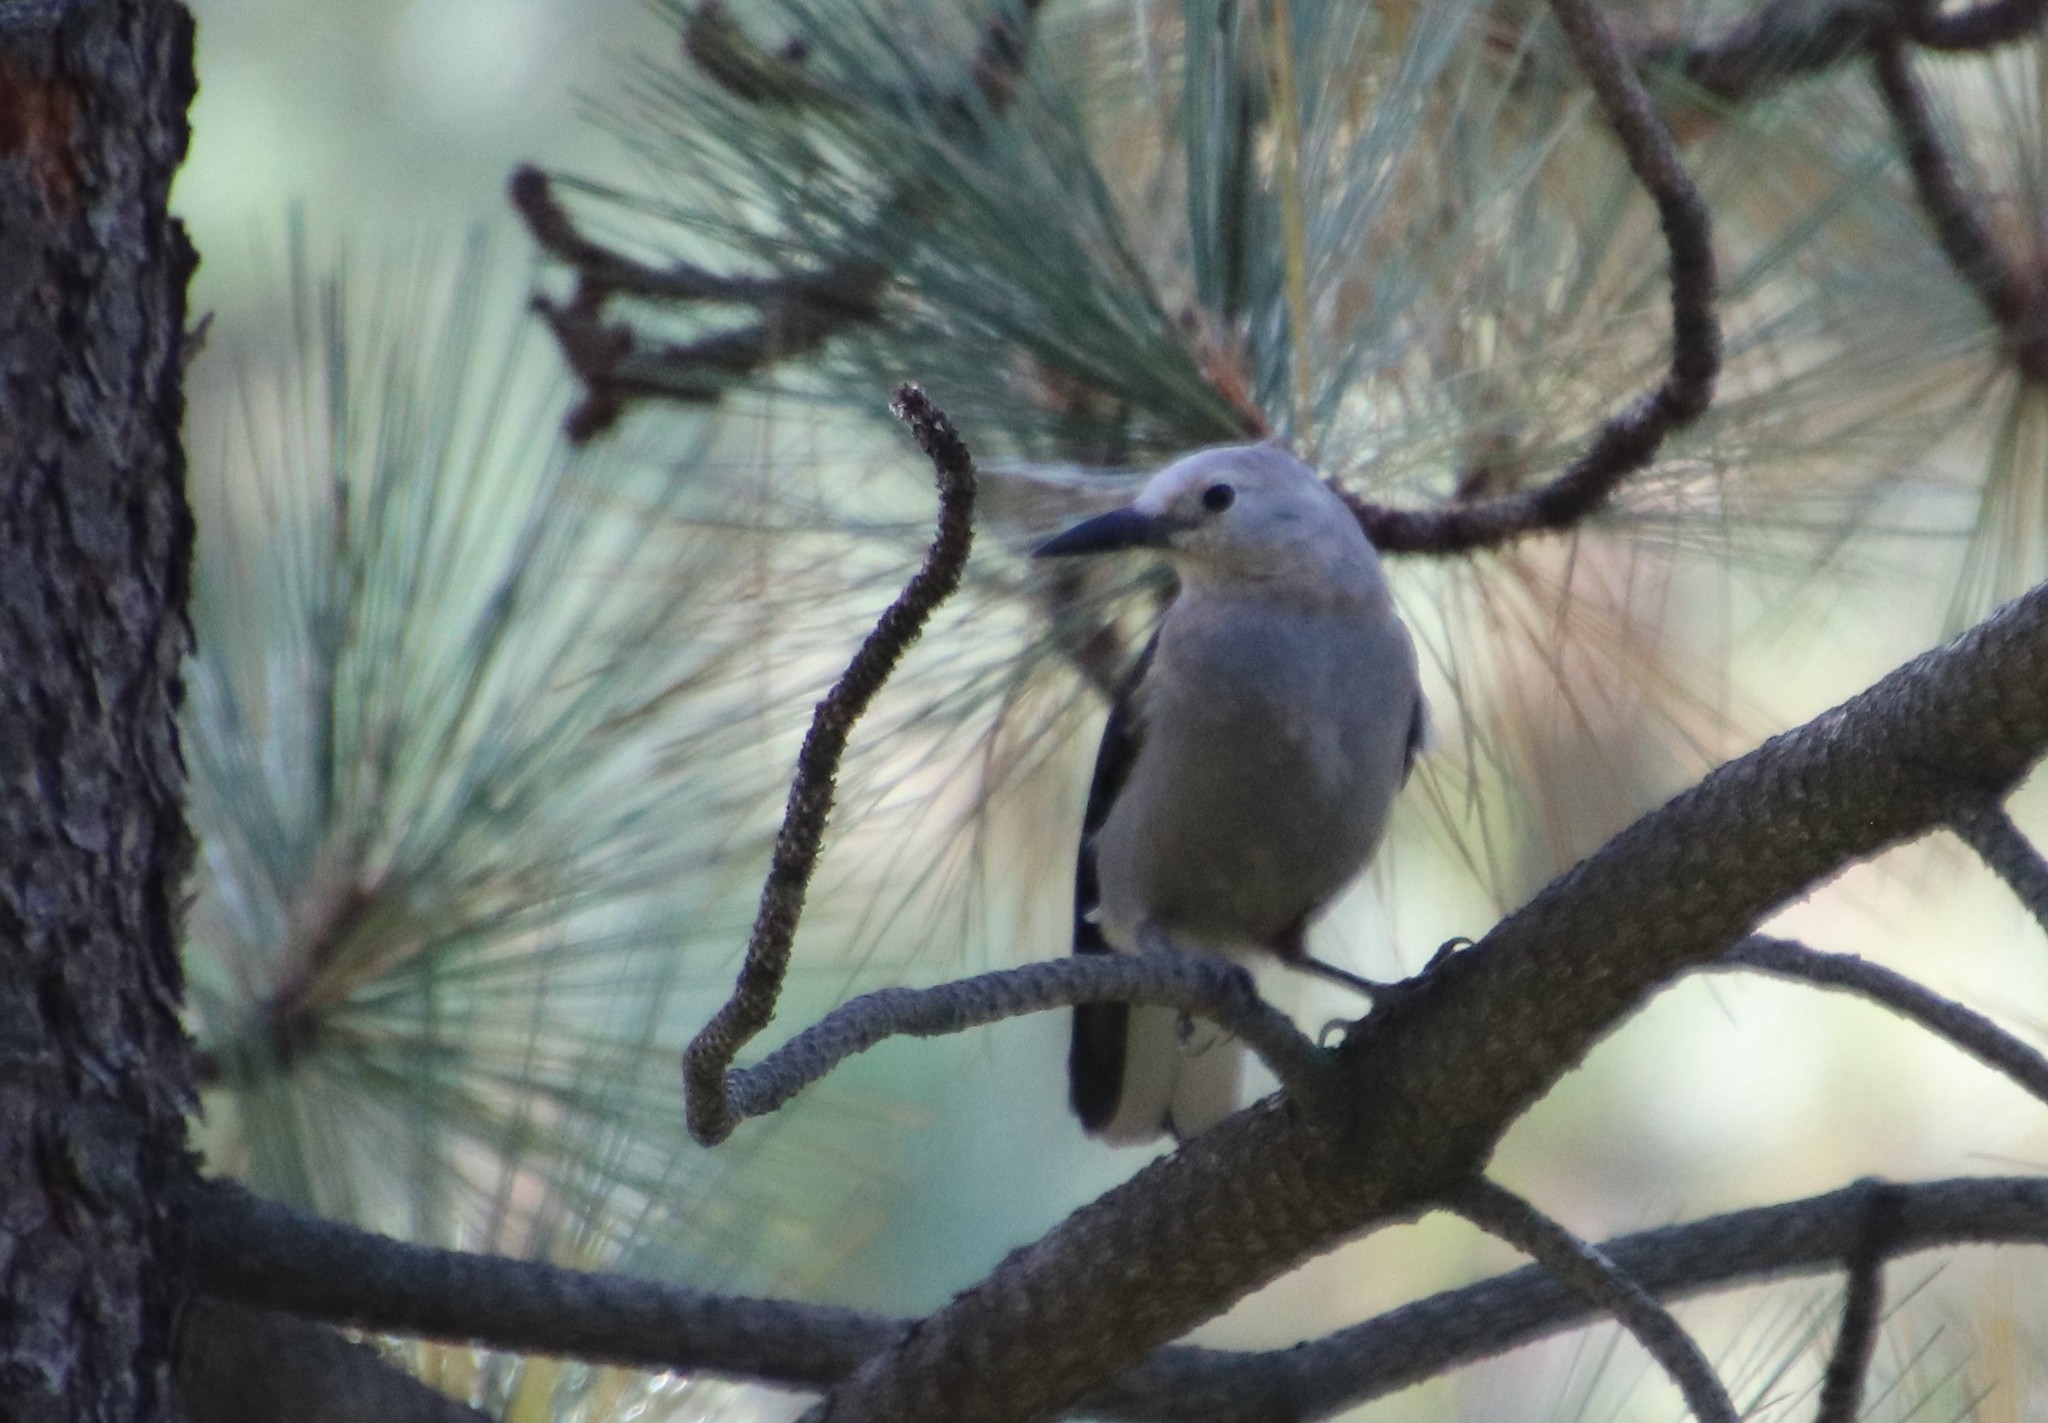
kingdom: Animalia
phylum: Chordata
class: Aves
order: Passeriformes
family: Corvidae
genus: Nucifraga
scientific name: Nucifraga columbiana
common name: Clark's nutcracker
